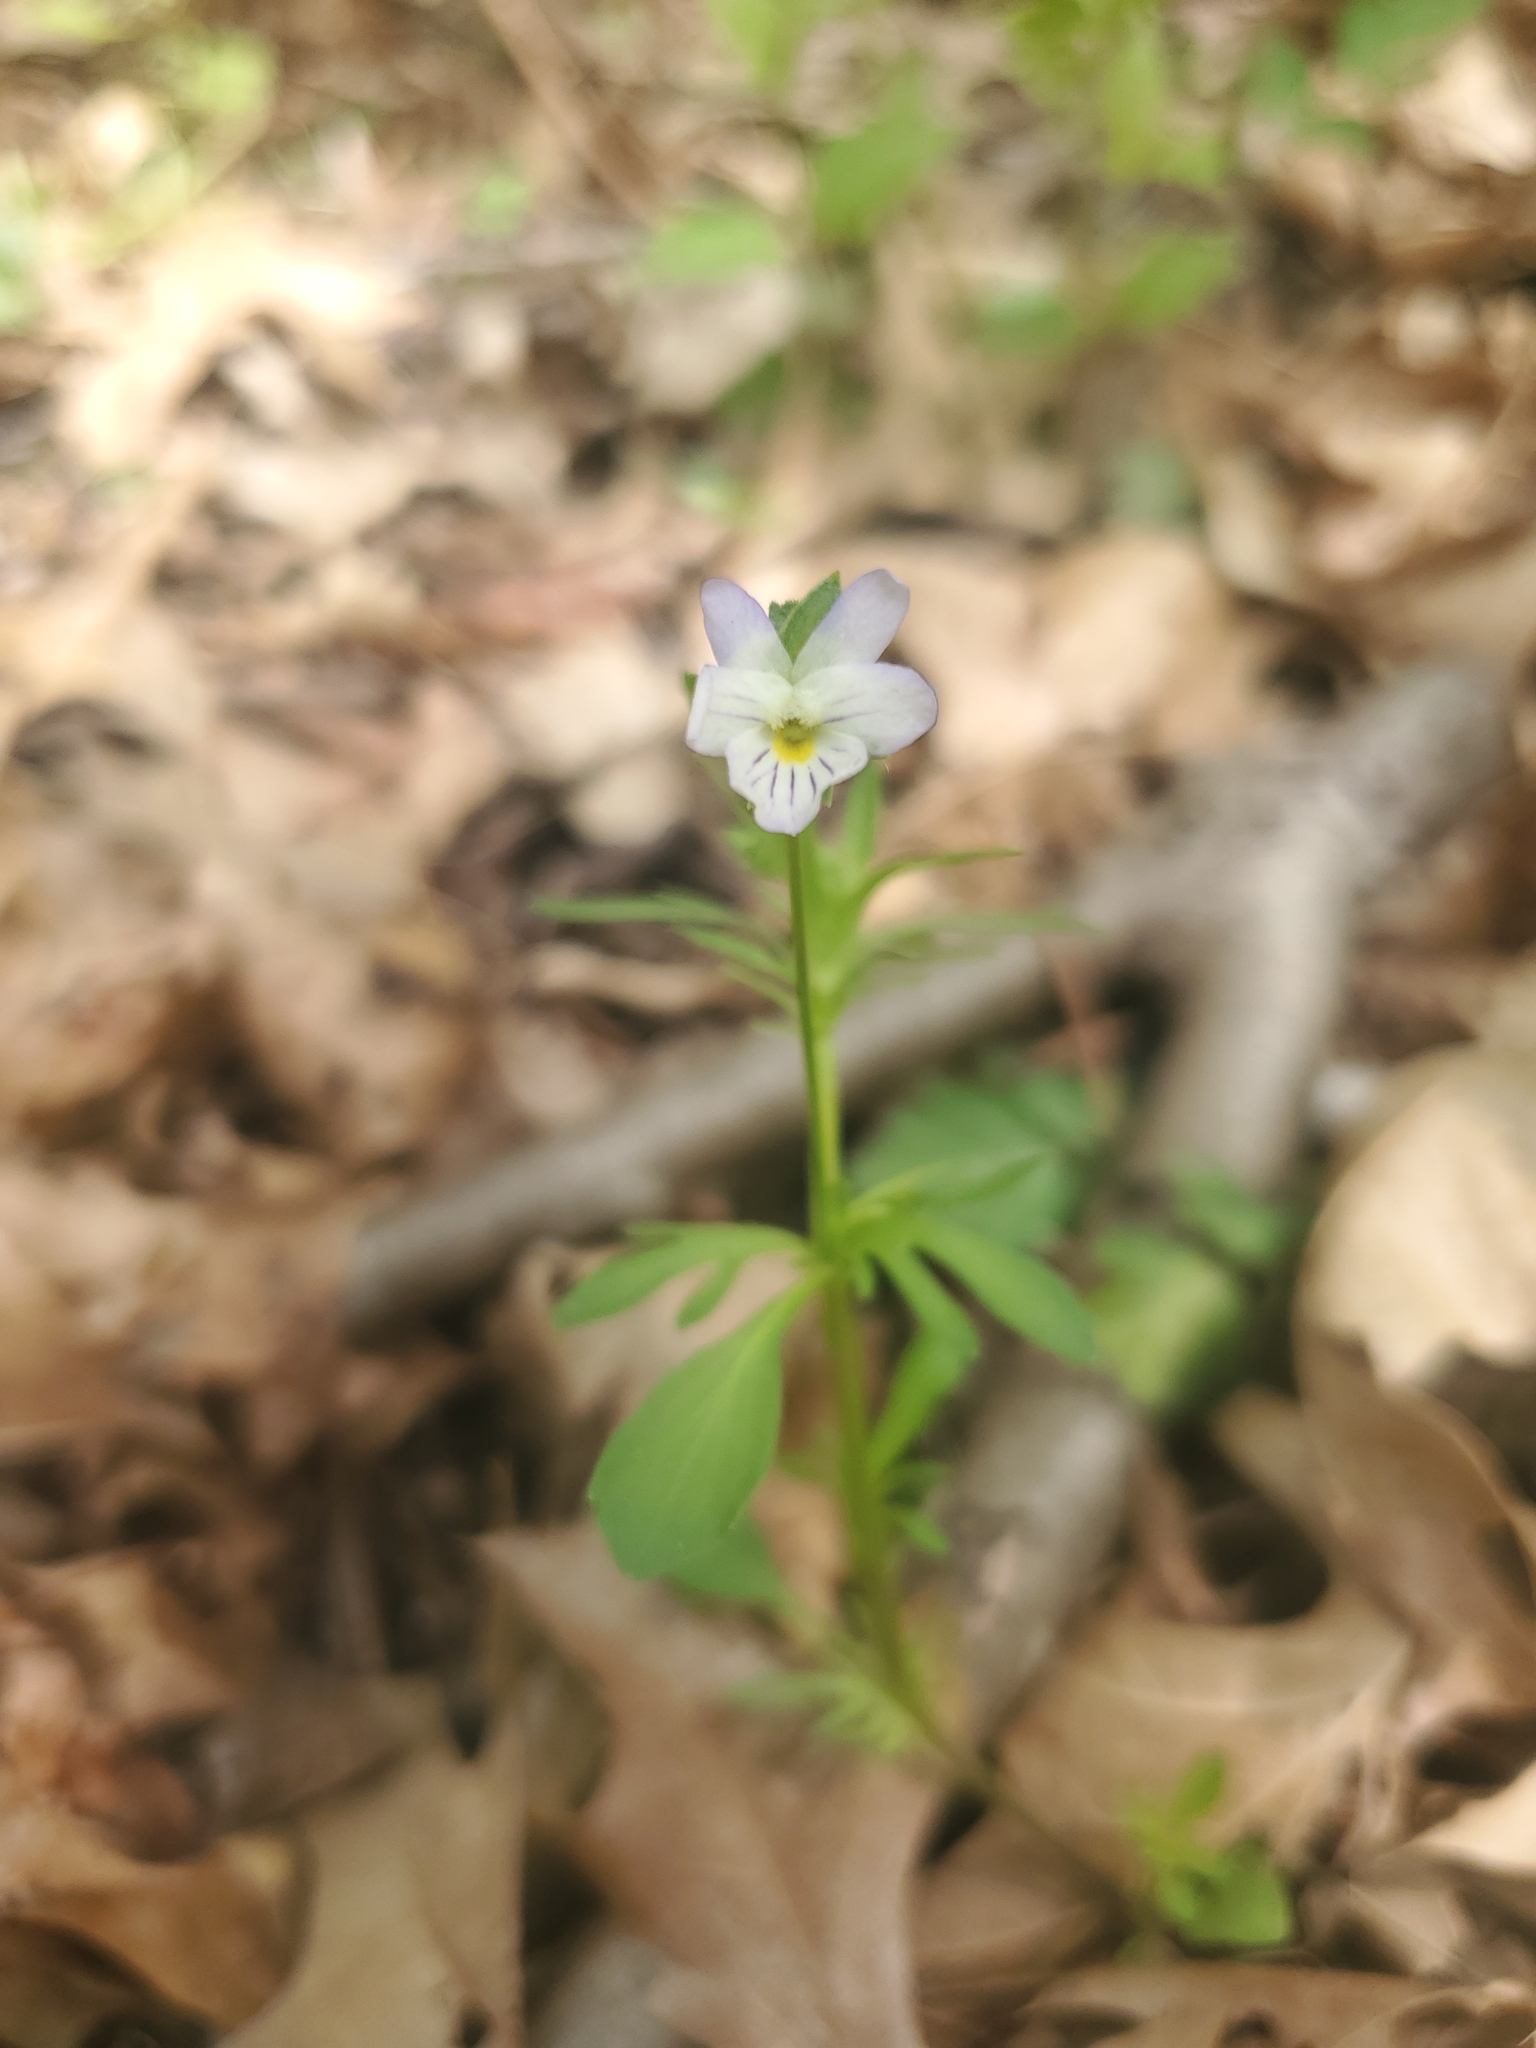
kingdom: Plantae
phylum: Tracheophyta
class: Magnoliopsida
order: Malpighiales
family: Violaceae
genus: Viola
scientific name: Viola rafinesquei
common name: American field pansy
